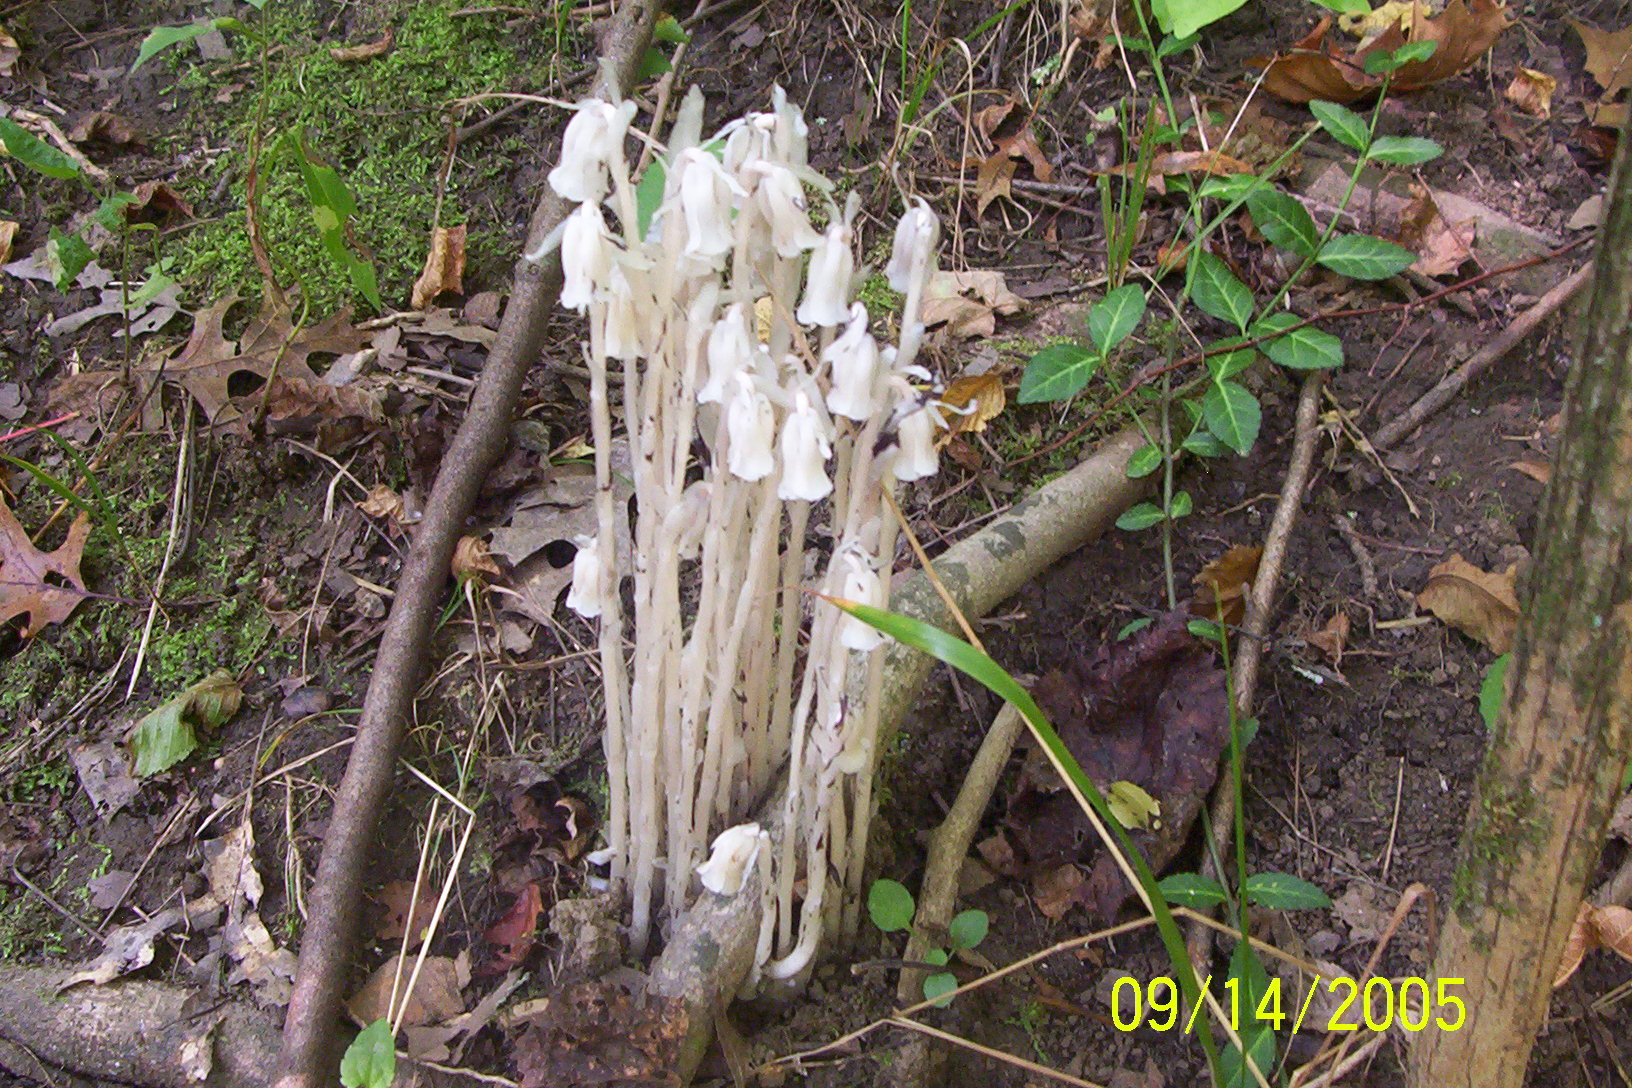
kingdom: Plantae
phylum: Tracheophyta
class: Magnoliopsida
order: Ericales
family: Ericaceae
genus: Monotropa
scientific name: Monotropa uniflora
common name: Convulsion root
